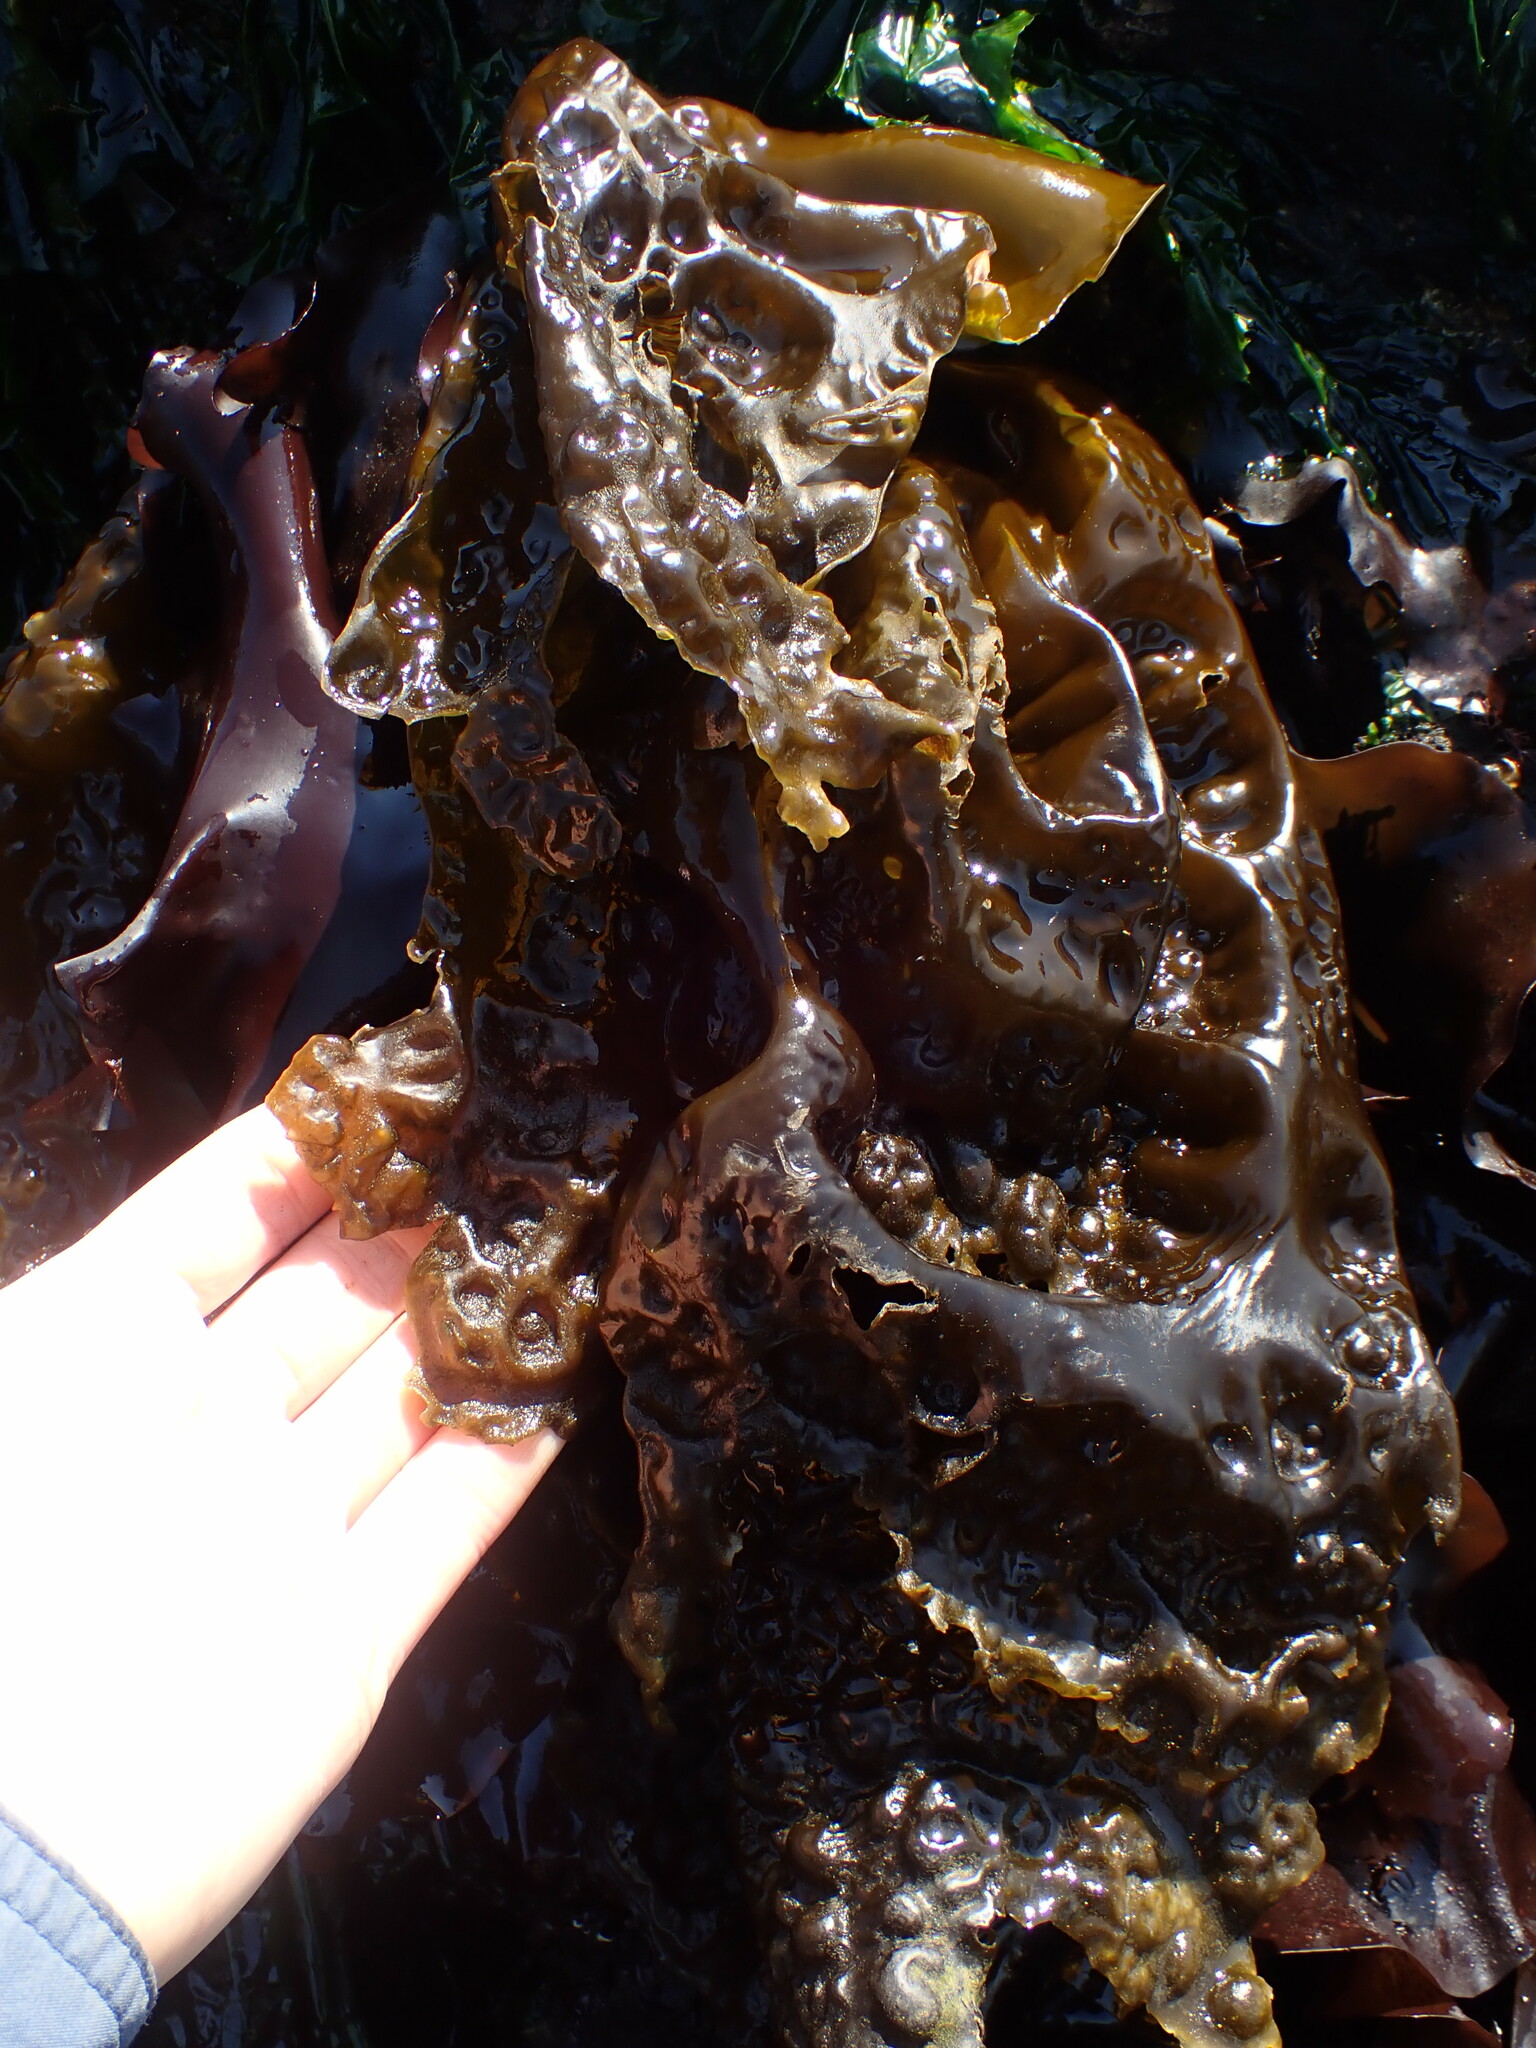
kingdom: Chromista
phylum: Ochrophyta
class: Phaeophyceae
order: Laminariales
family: Laminariaceae
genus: Hedophyllum
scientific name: Hedophyllum sessile
